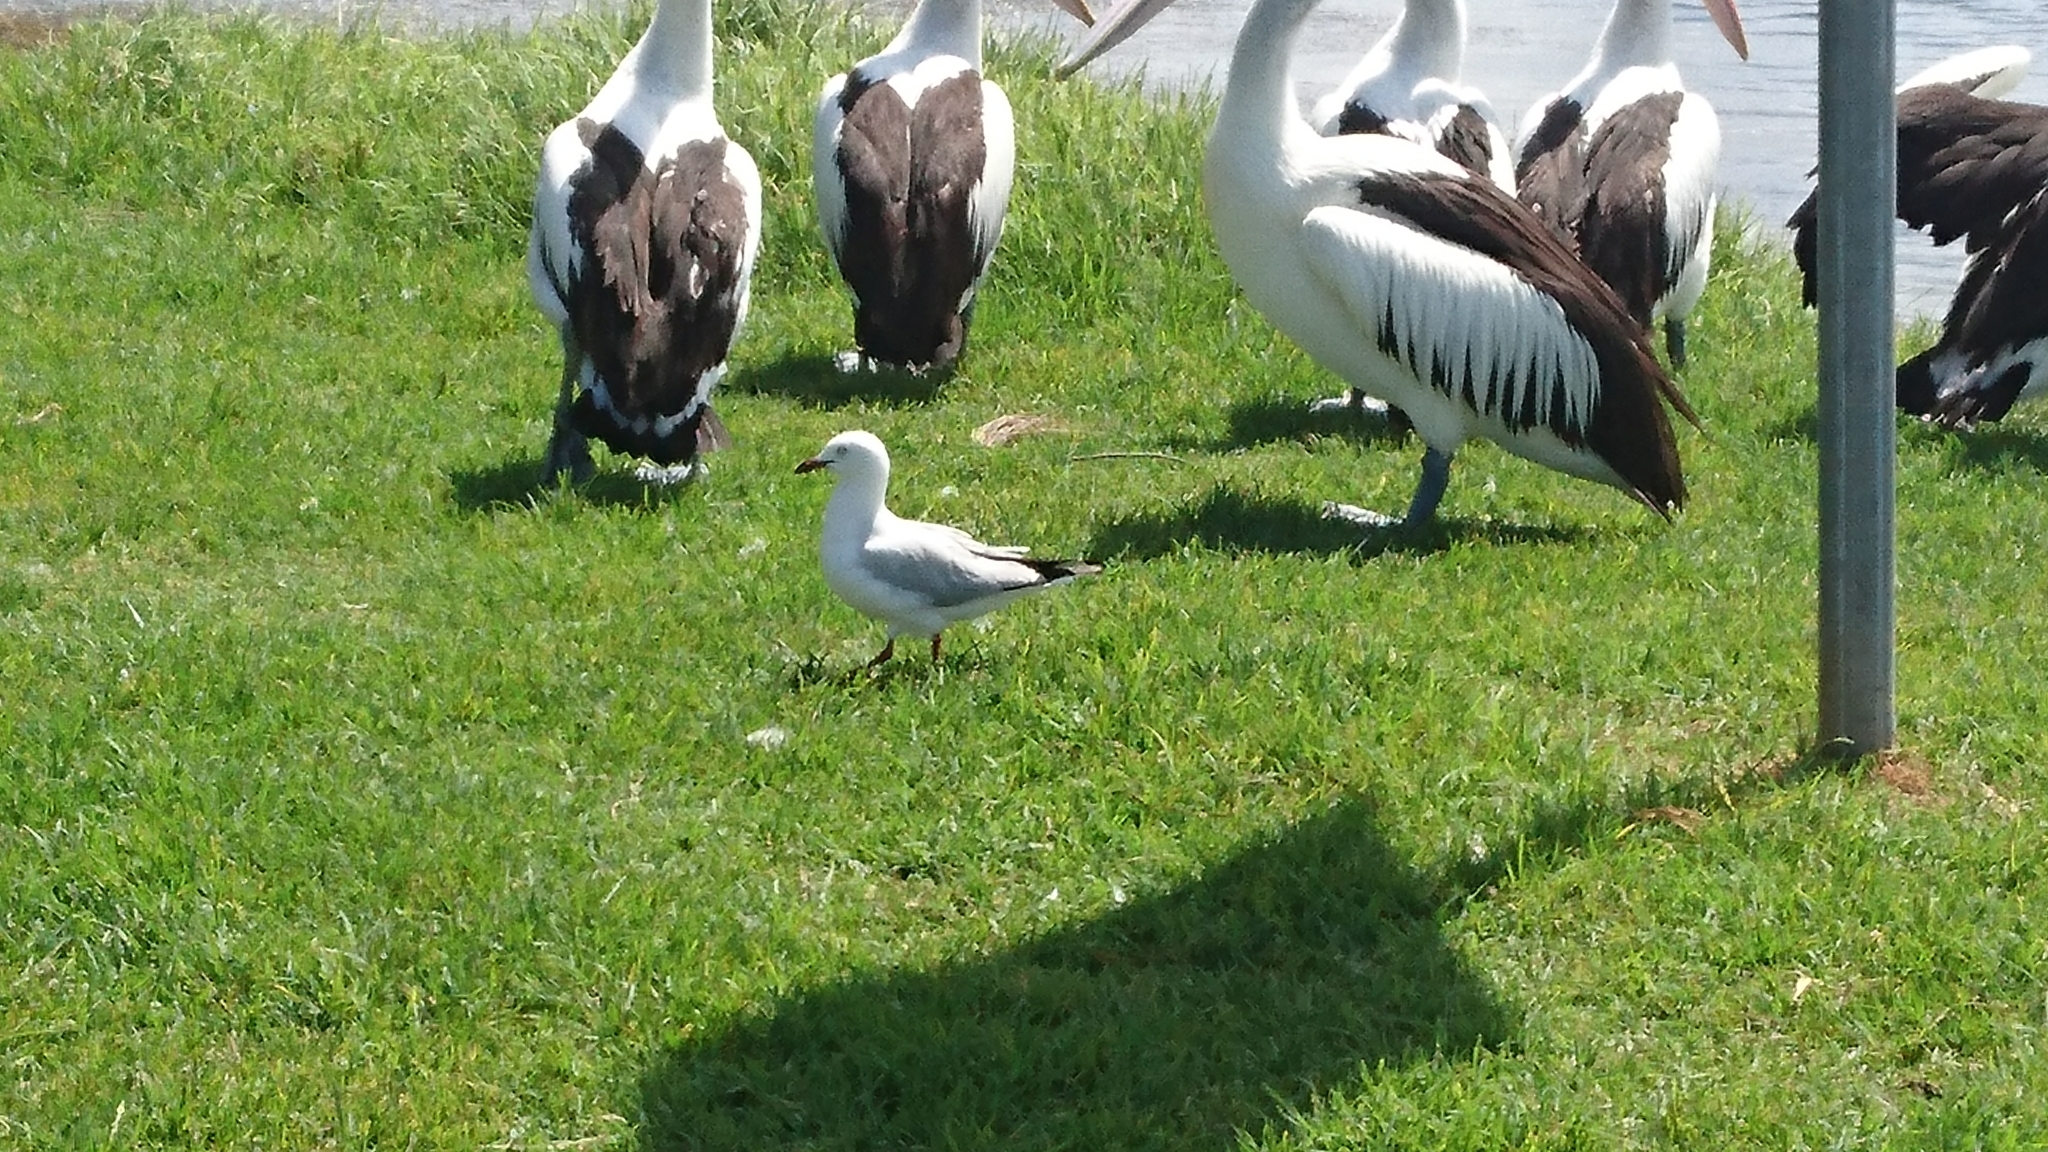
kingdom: Animalia
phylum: Chordata
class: Aves
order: Charadriiformes
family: Laridae
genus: Chroicocephalus
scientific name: Chroicocephalus novaehollandiae
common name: Silver gull
